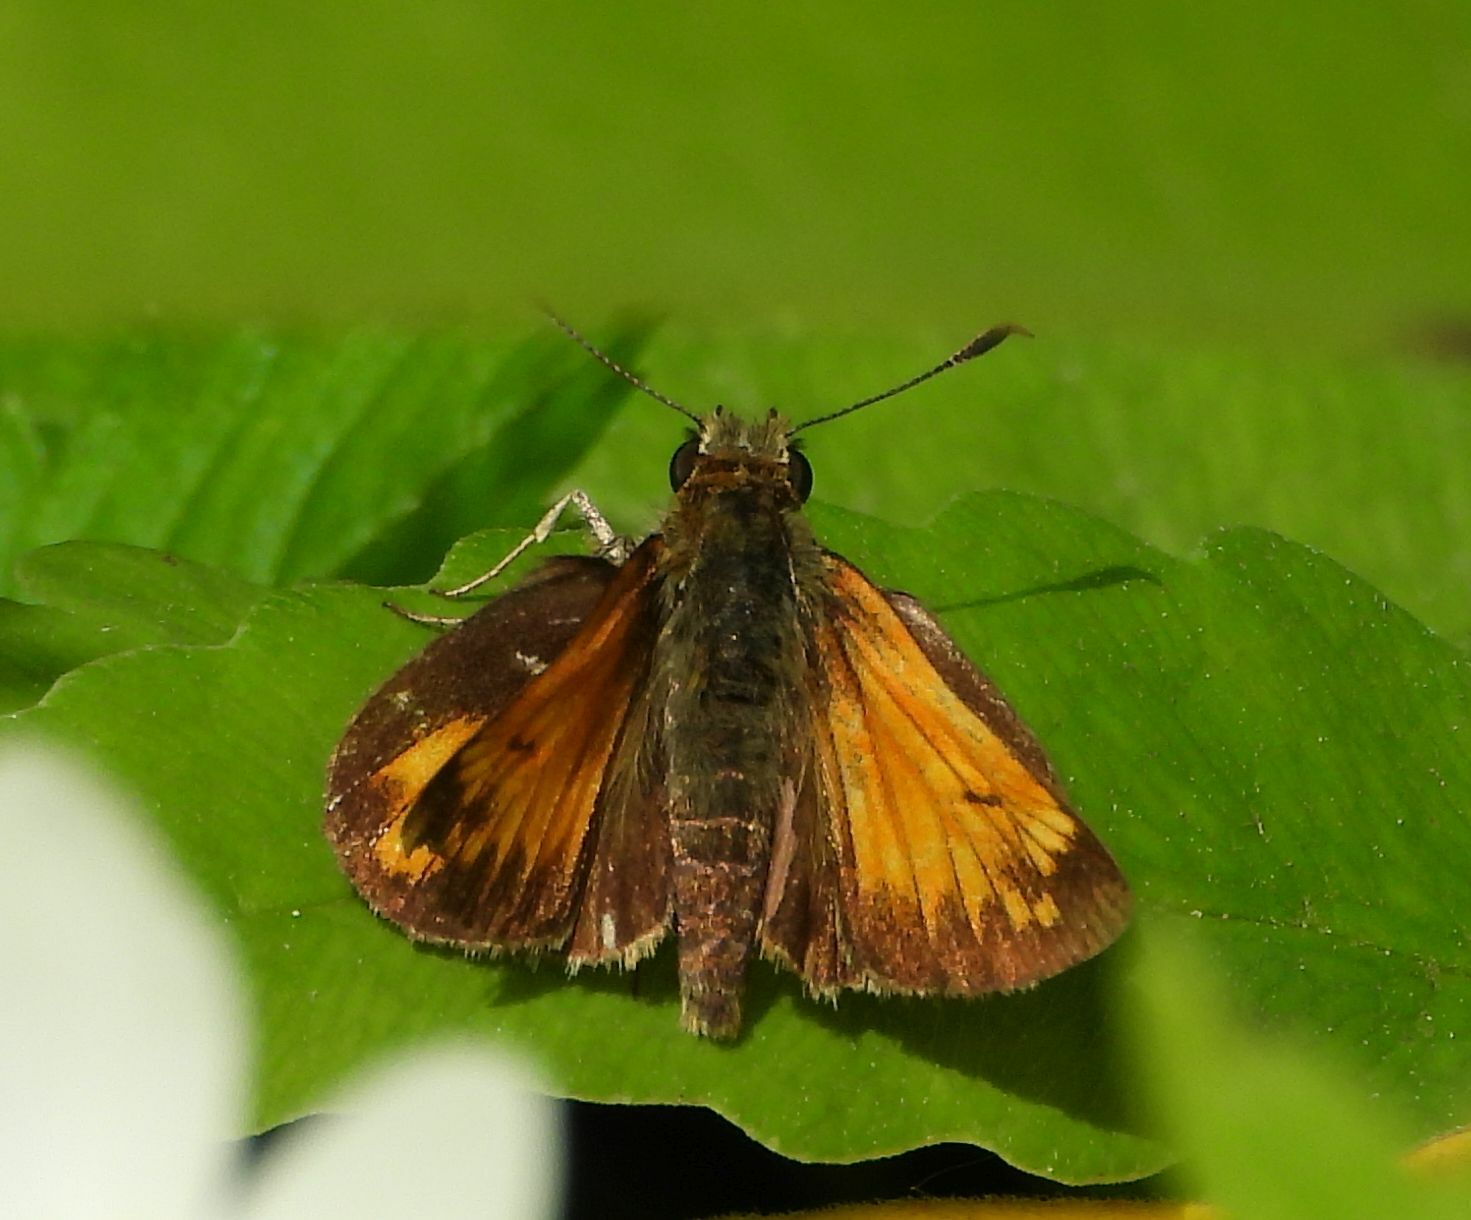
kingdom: Animalia
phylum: Arthropoda
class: Insecta
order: Lepidoptera
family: Hesperiidae
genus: Lon
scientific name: Lon hobomok
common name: Hobomok skipper
